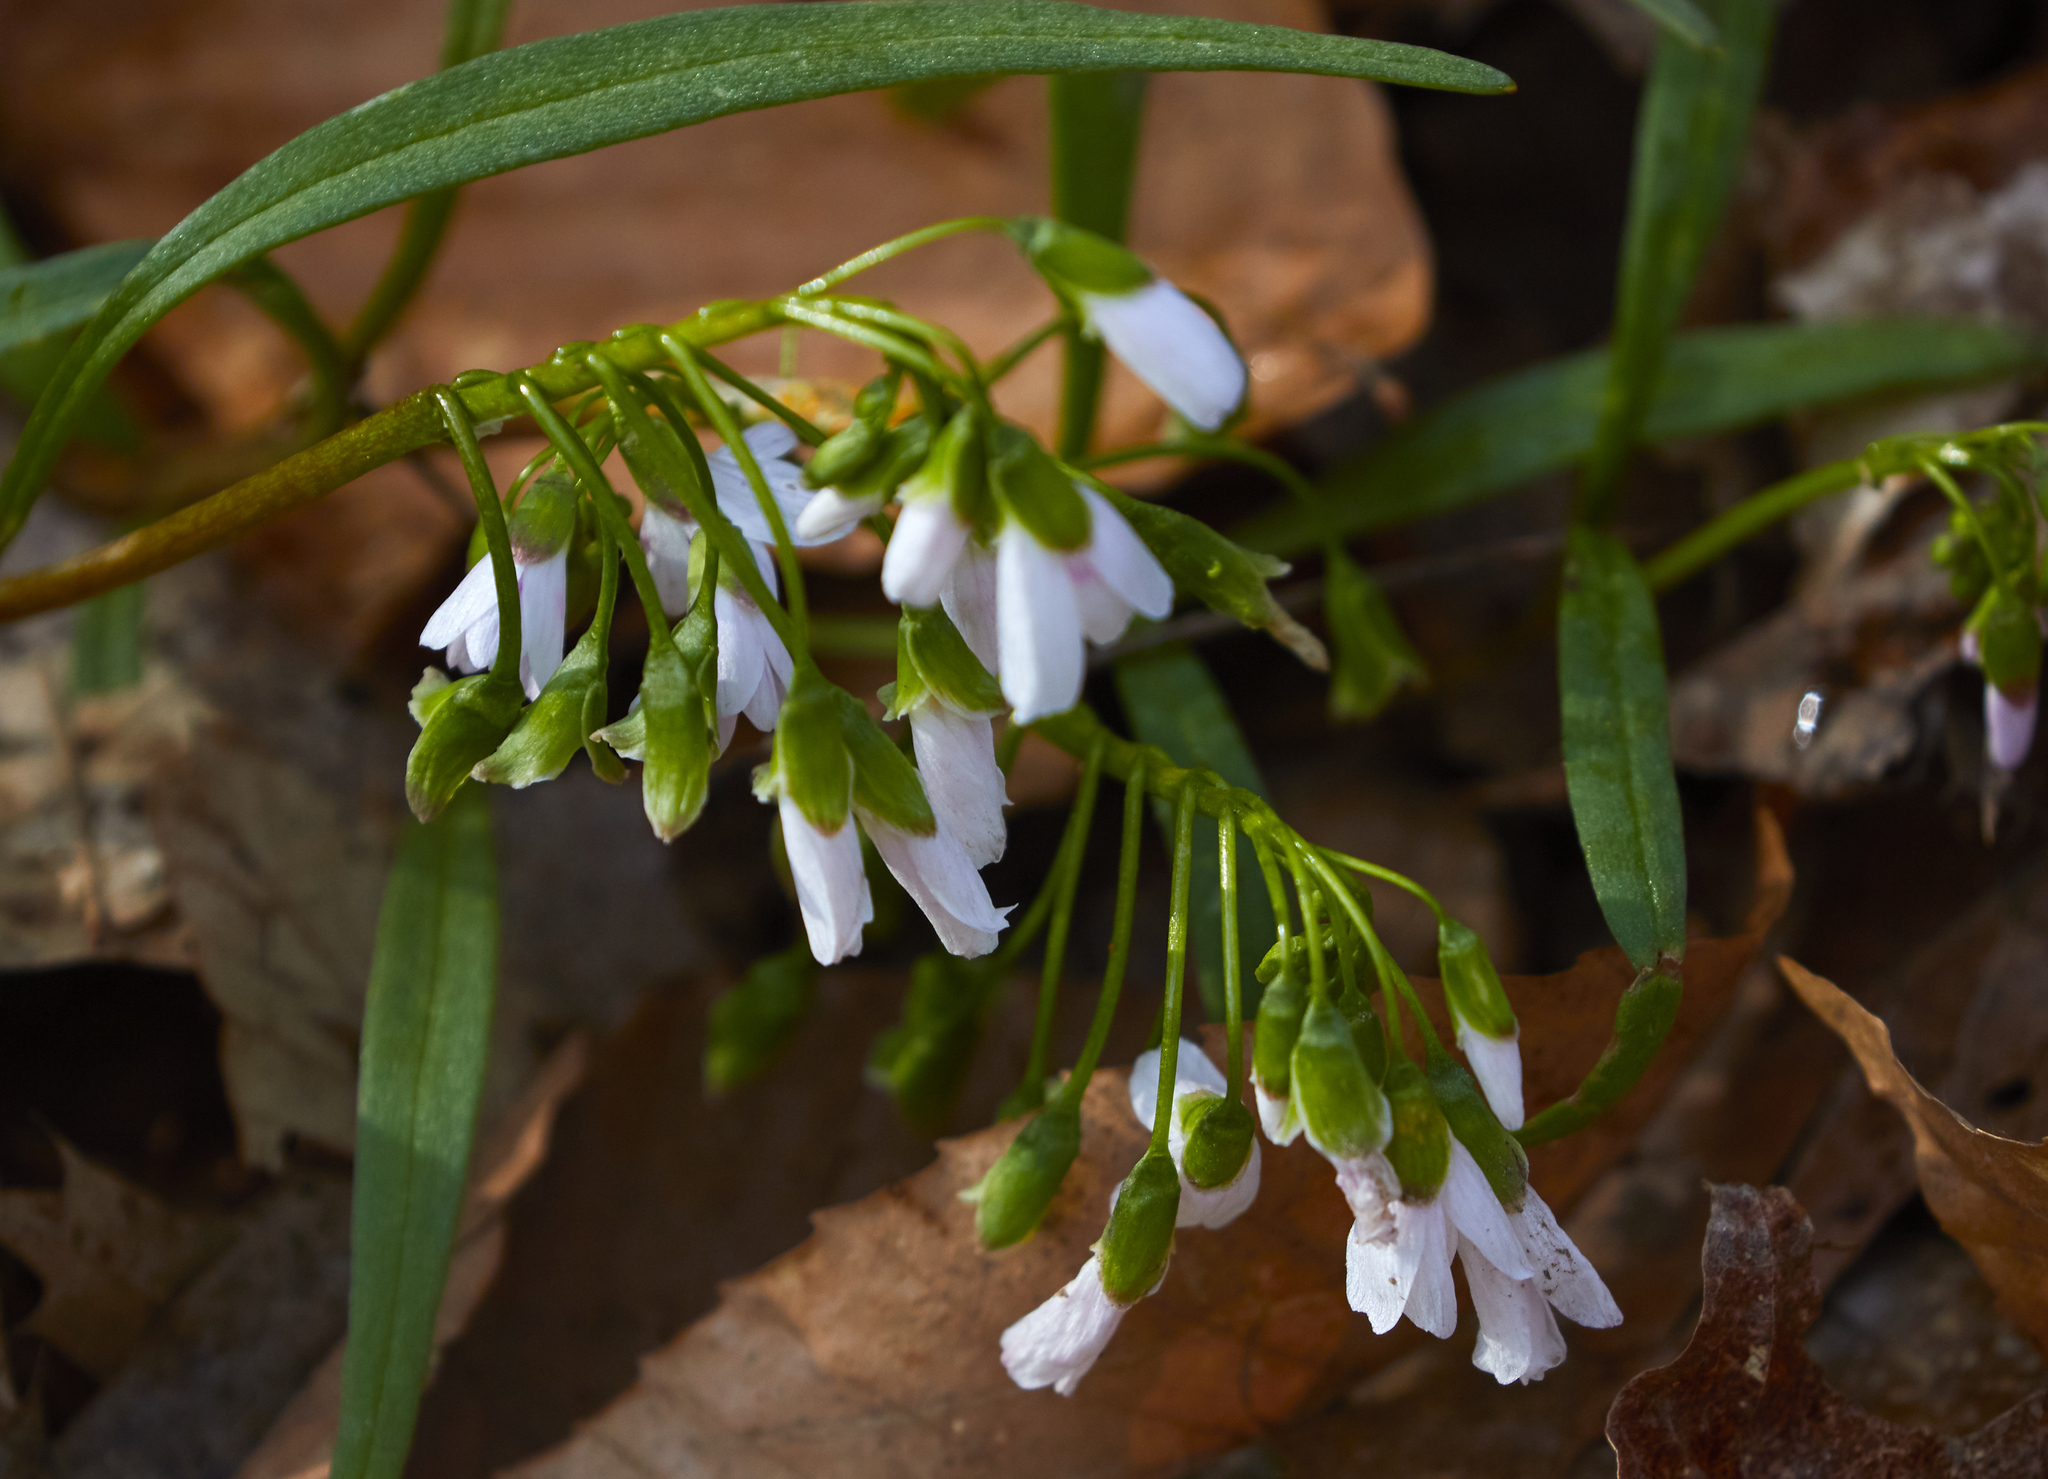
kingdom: Plantae
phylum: Tracheophyta
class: Magnoliopsida
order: Caryophyllales
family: Montiaceae
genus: Claytonia
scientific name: Claytonia virginica
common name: Virginia springbeauty
